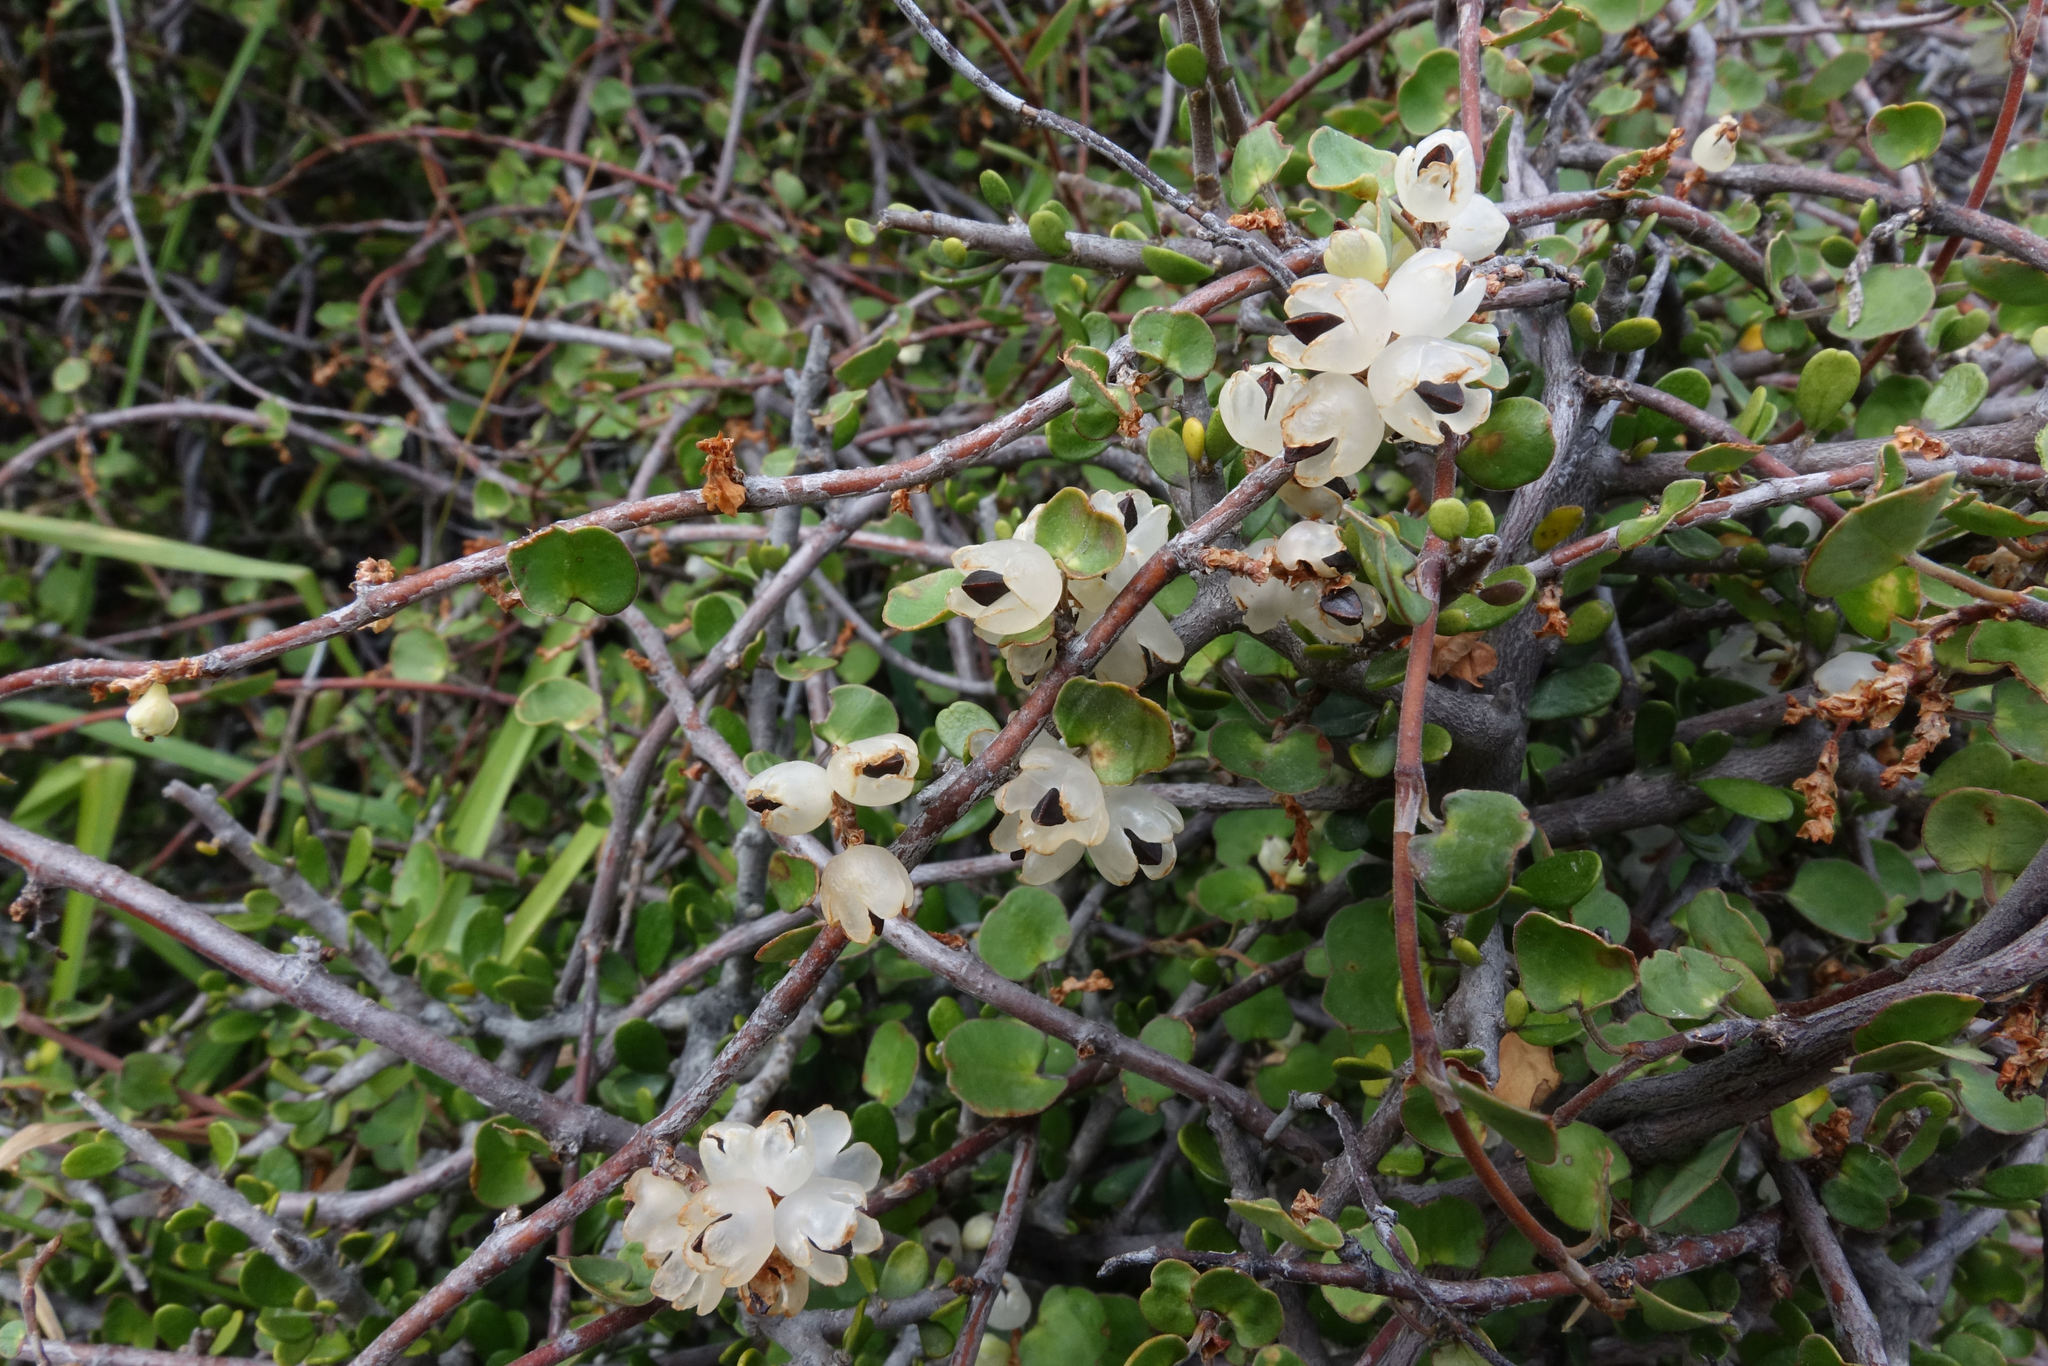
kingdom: Plantae
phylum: Tracheophyta
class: Magnoliopsida
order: Caryophyllales
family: Polygonaceae
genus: Muehlenbeckia
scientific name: Muehlenbeckia complexa
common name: Wireplant
